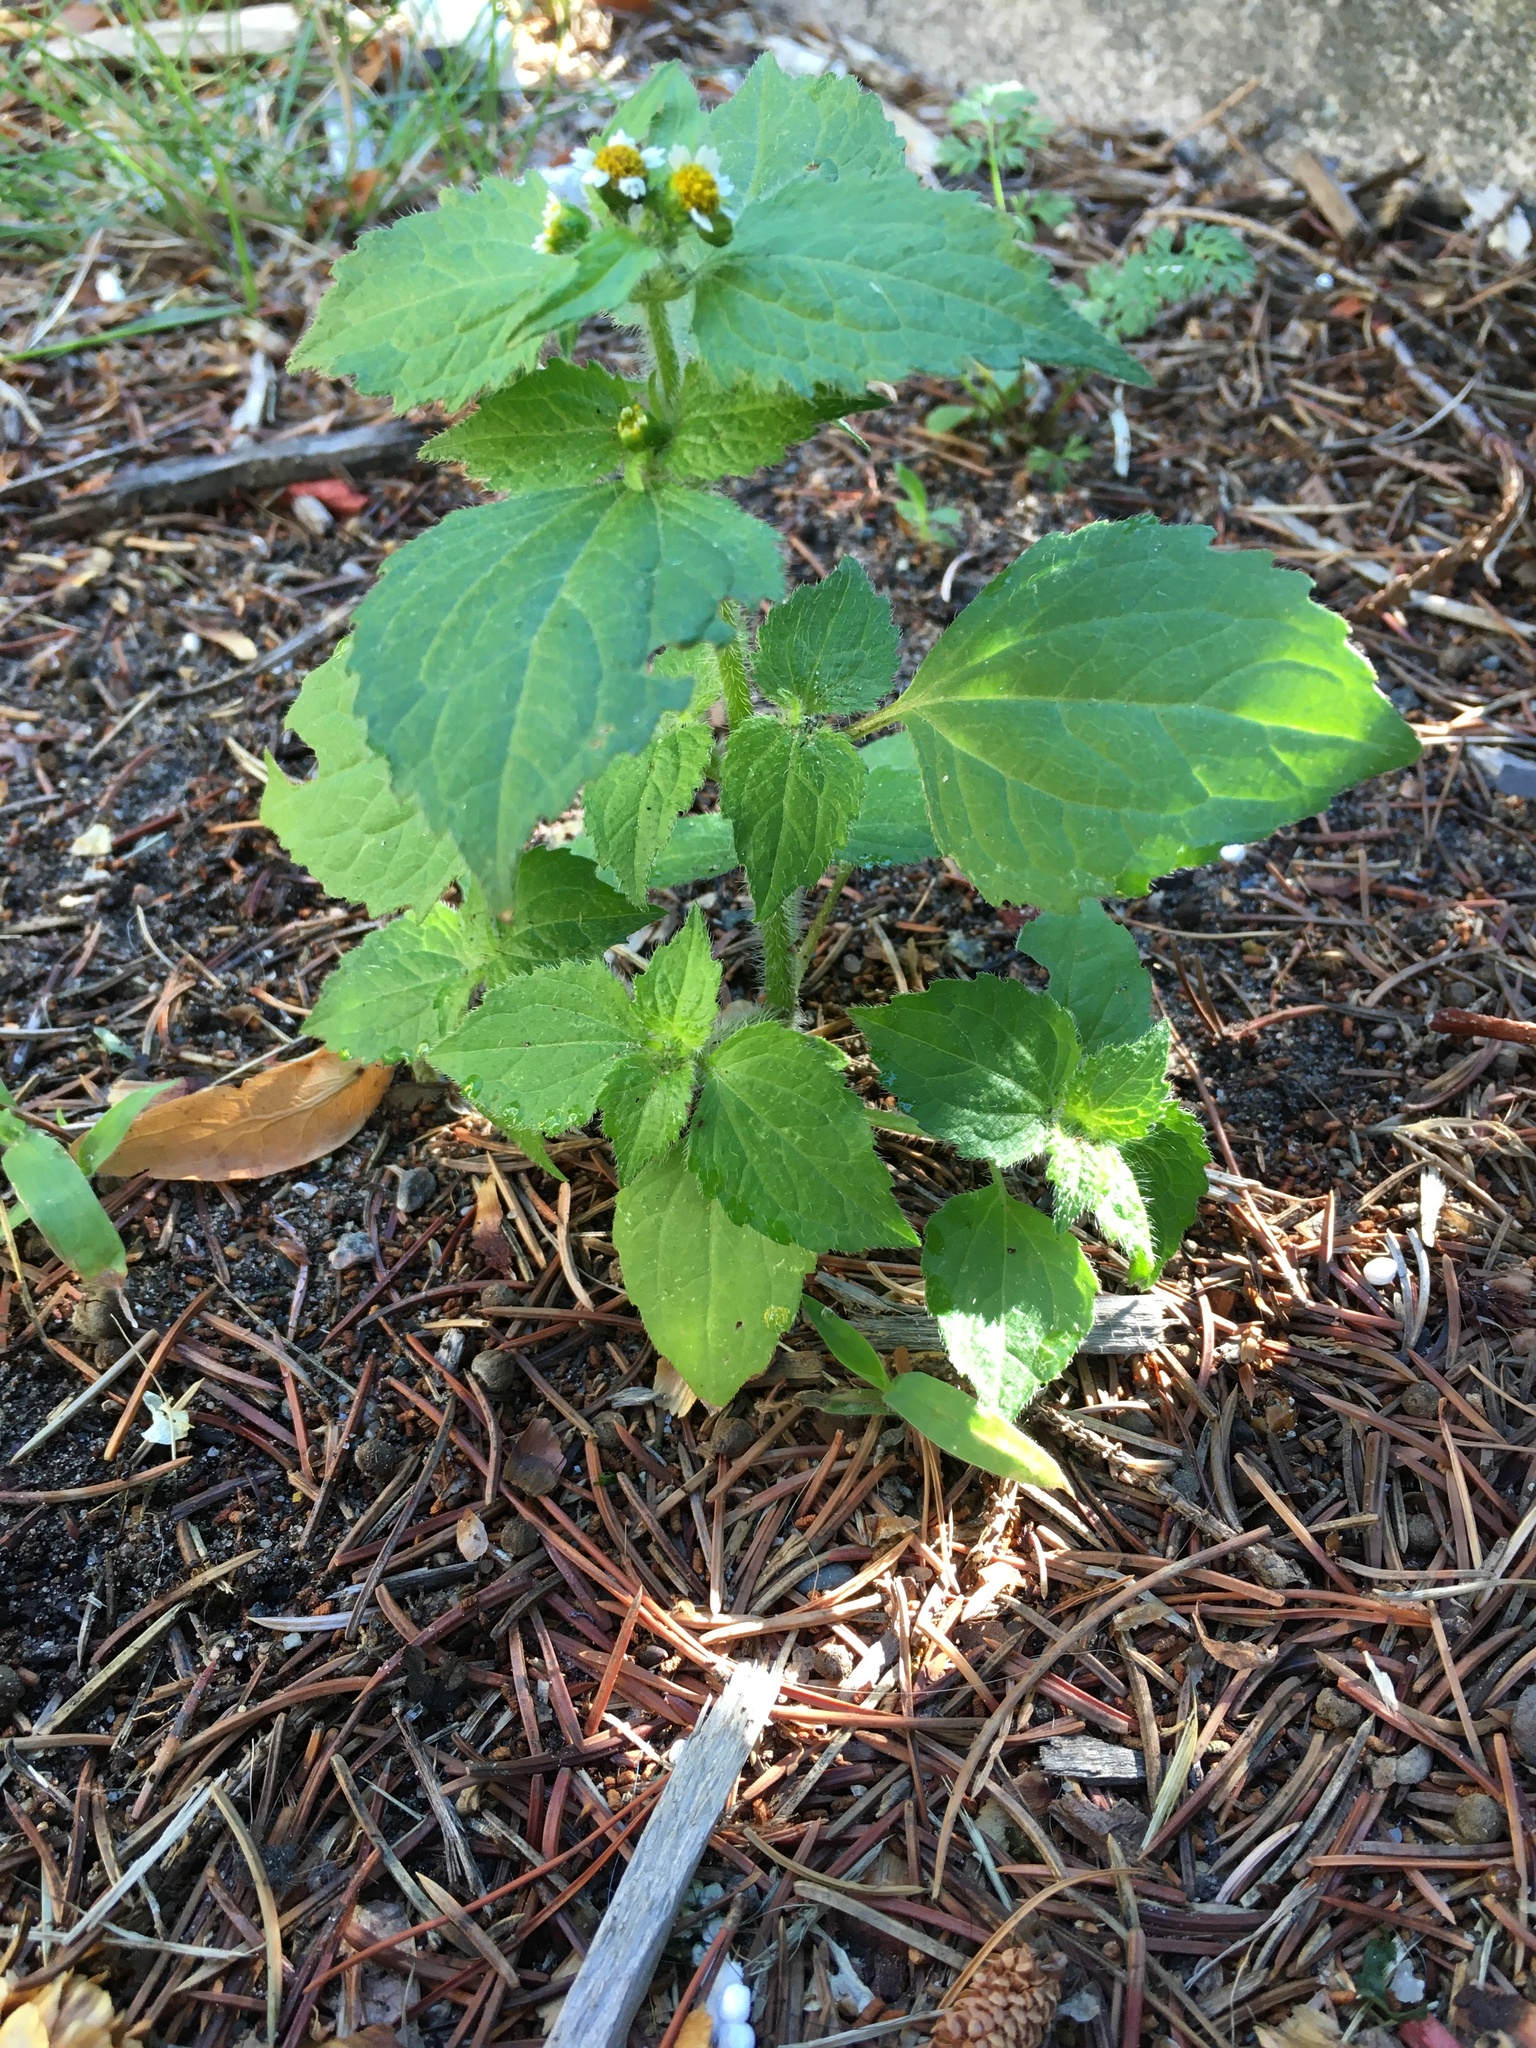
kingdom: Plantae
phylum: Tracheophyta
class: Magnoliopsida
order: Asterales
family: Asteraceae
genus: Galinsoga
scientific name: Galinsoga quadriradiata
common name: Shaggy soldier
